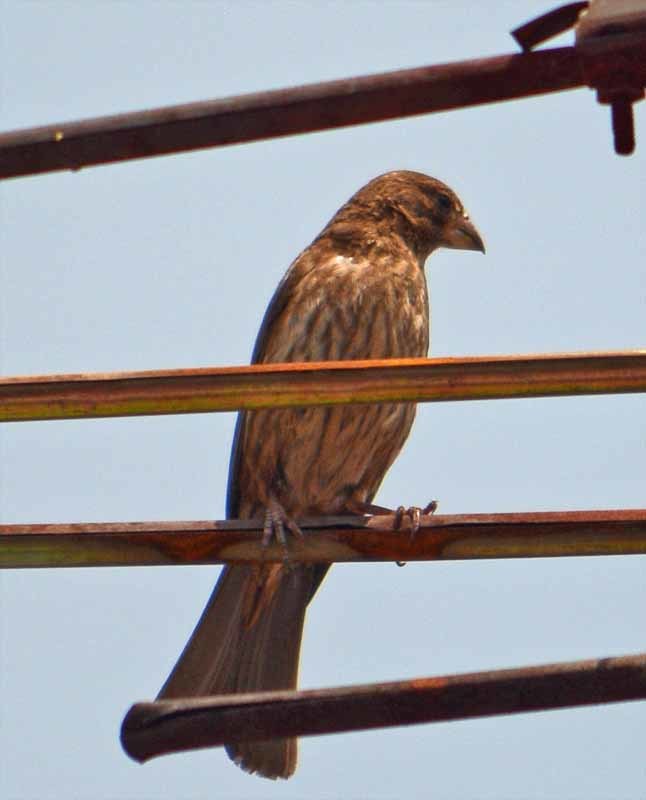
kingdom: Animalia
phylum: Chordata
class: Aves
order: Passeriformes
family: Fringillidae
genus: Haemorhous
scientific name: Haemorhous mexicanus
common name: House finch
